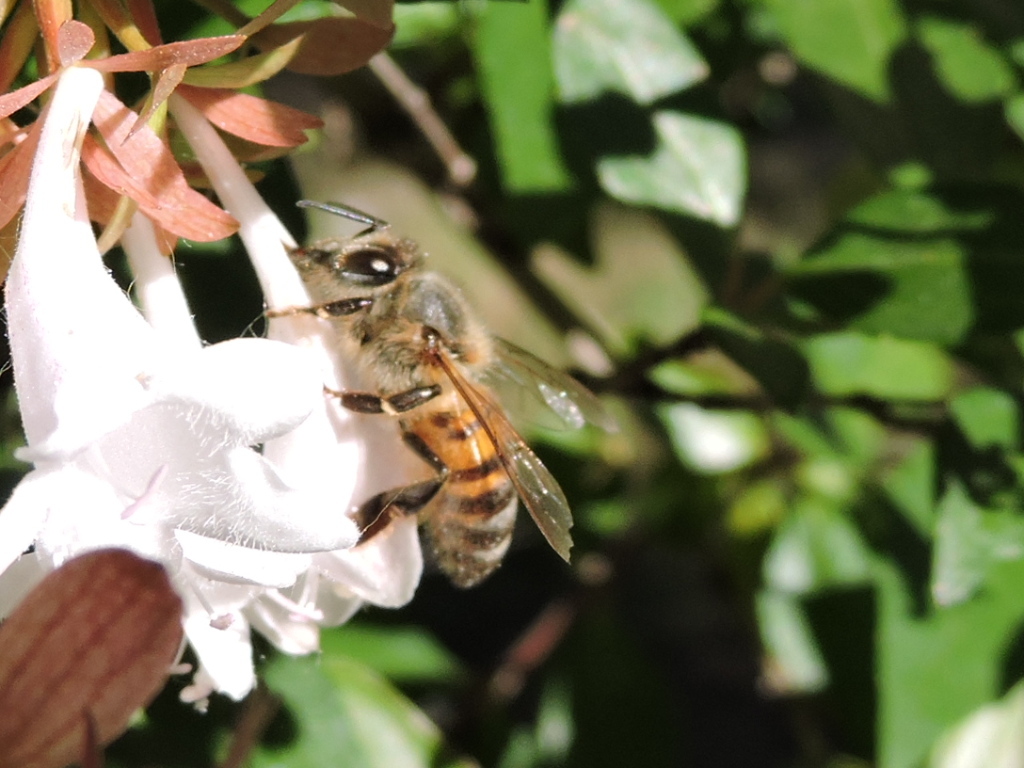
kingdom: Animalia
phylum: Arthropoda
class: Insecta
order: Hymenoptera
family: Apidae
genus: Apis
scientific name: Apis mellifera
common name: Honey bee
